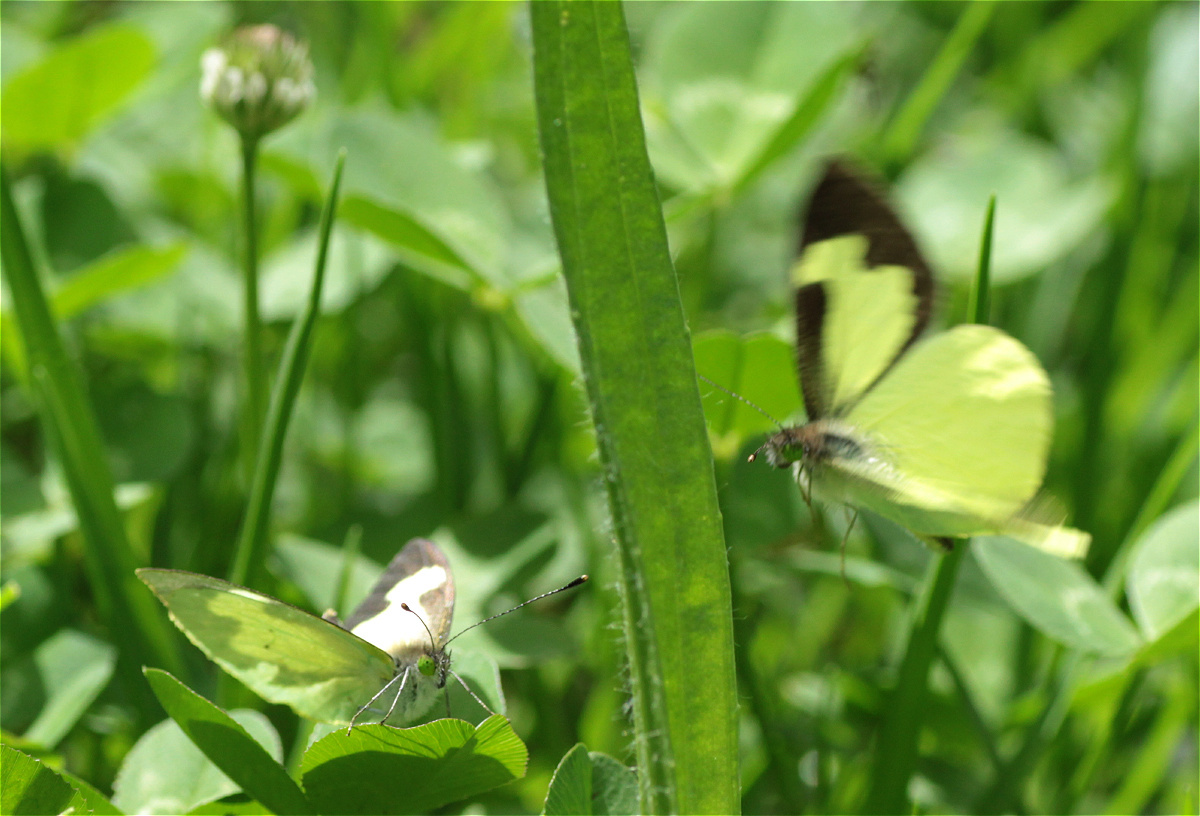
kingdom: Animalia
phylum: Arthropoda
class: Insecta
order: Lepidoptera
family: Pieridae
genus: Leptophobia
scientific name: Leptophobia eleone
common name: Silky wanderer
